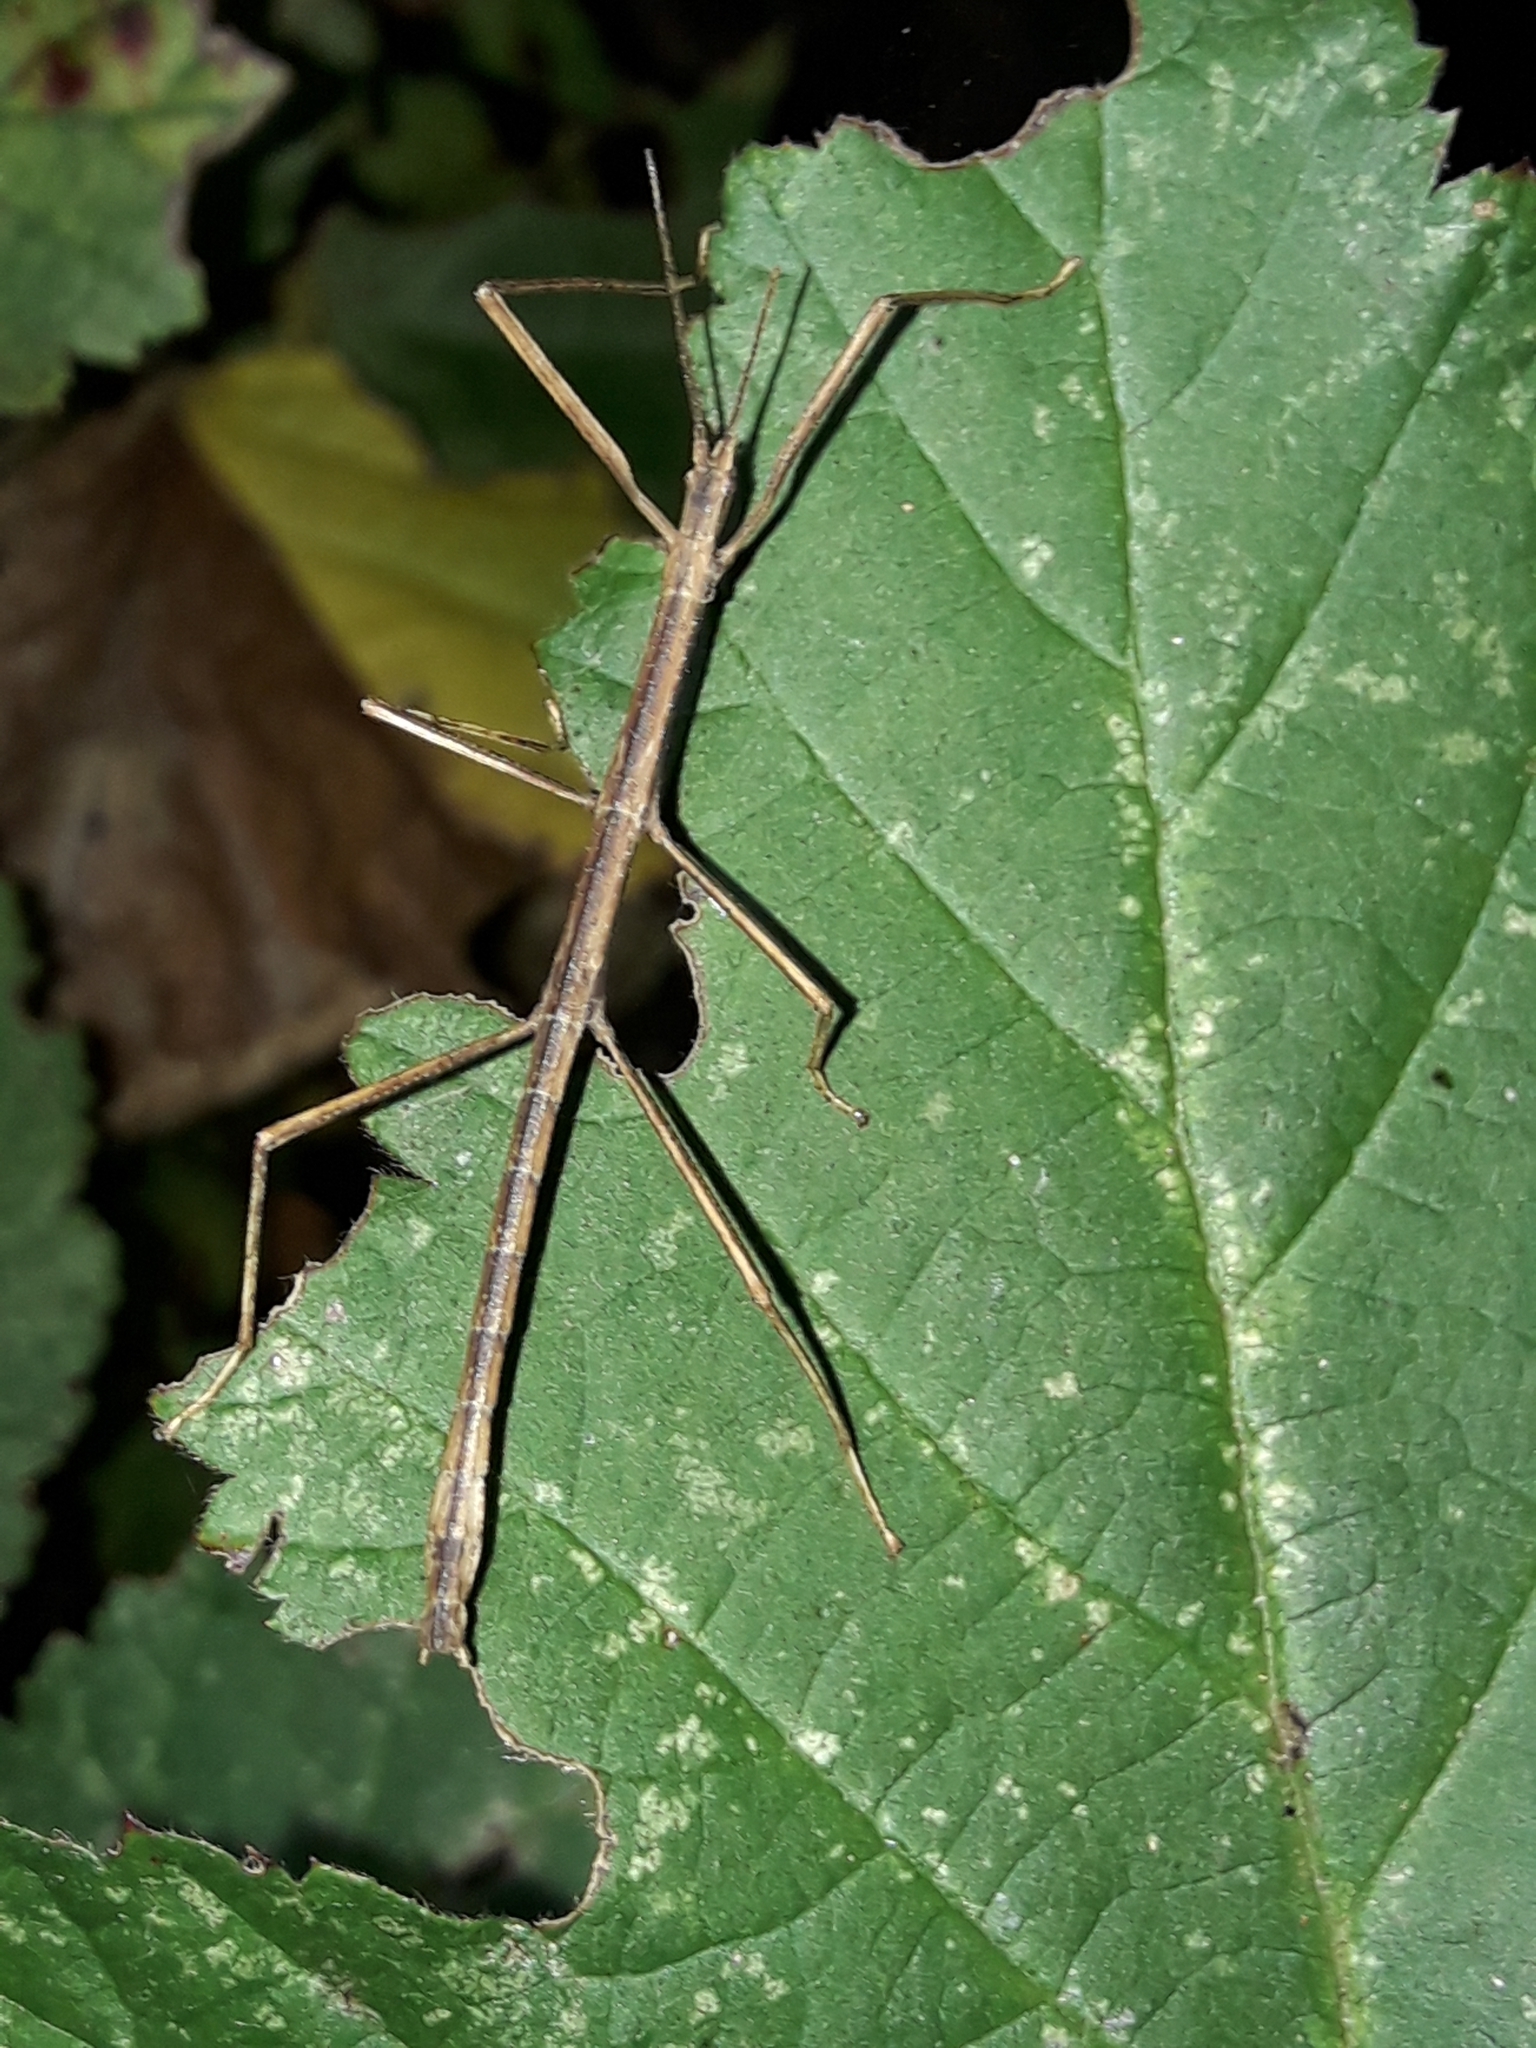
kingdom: Animalia
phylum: Arthropoda
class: Insecta
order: Phasmida
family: Phasmatidae
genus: Tectarchus
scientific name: Tectarchus huttoni
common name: The common ridge-backed stick insect
